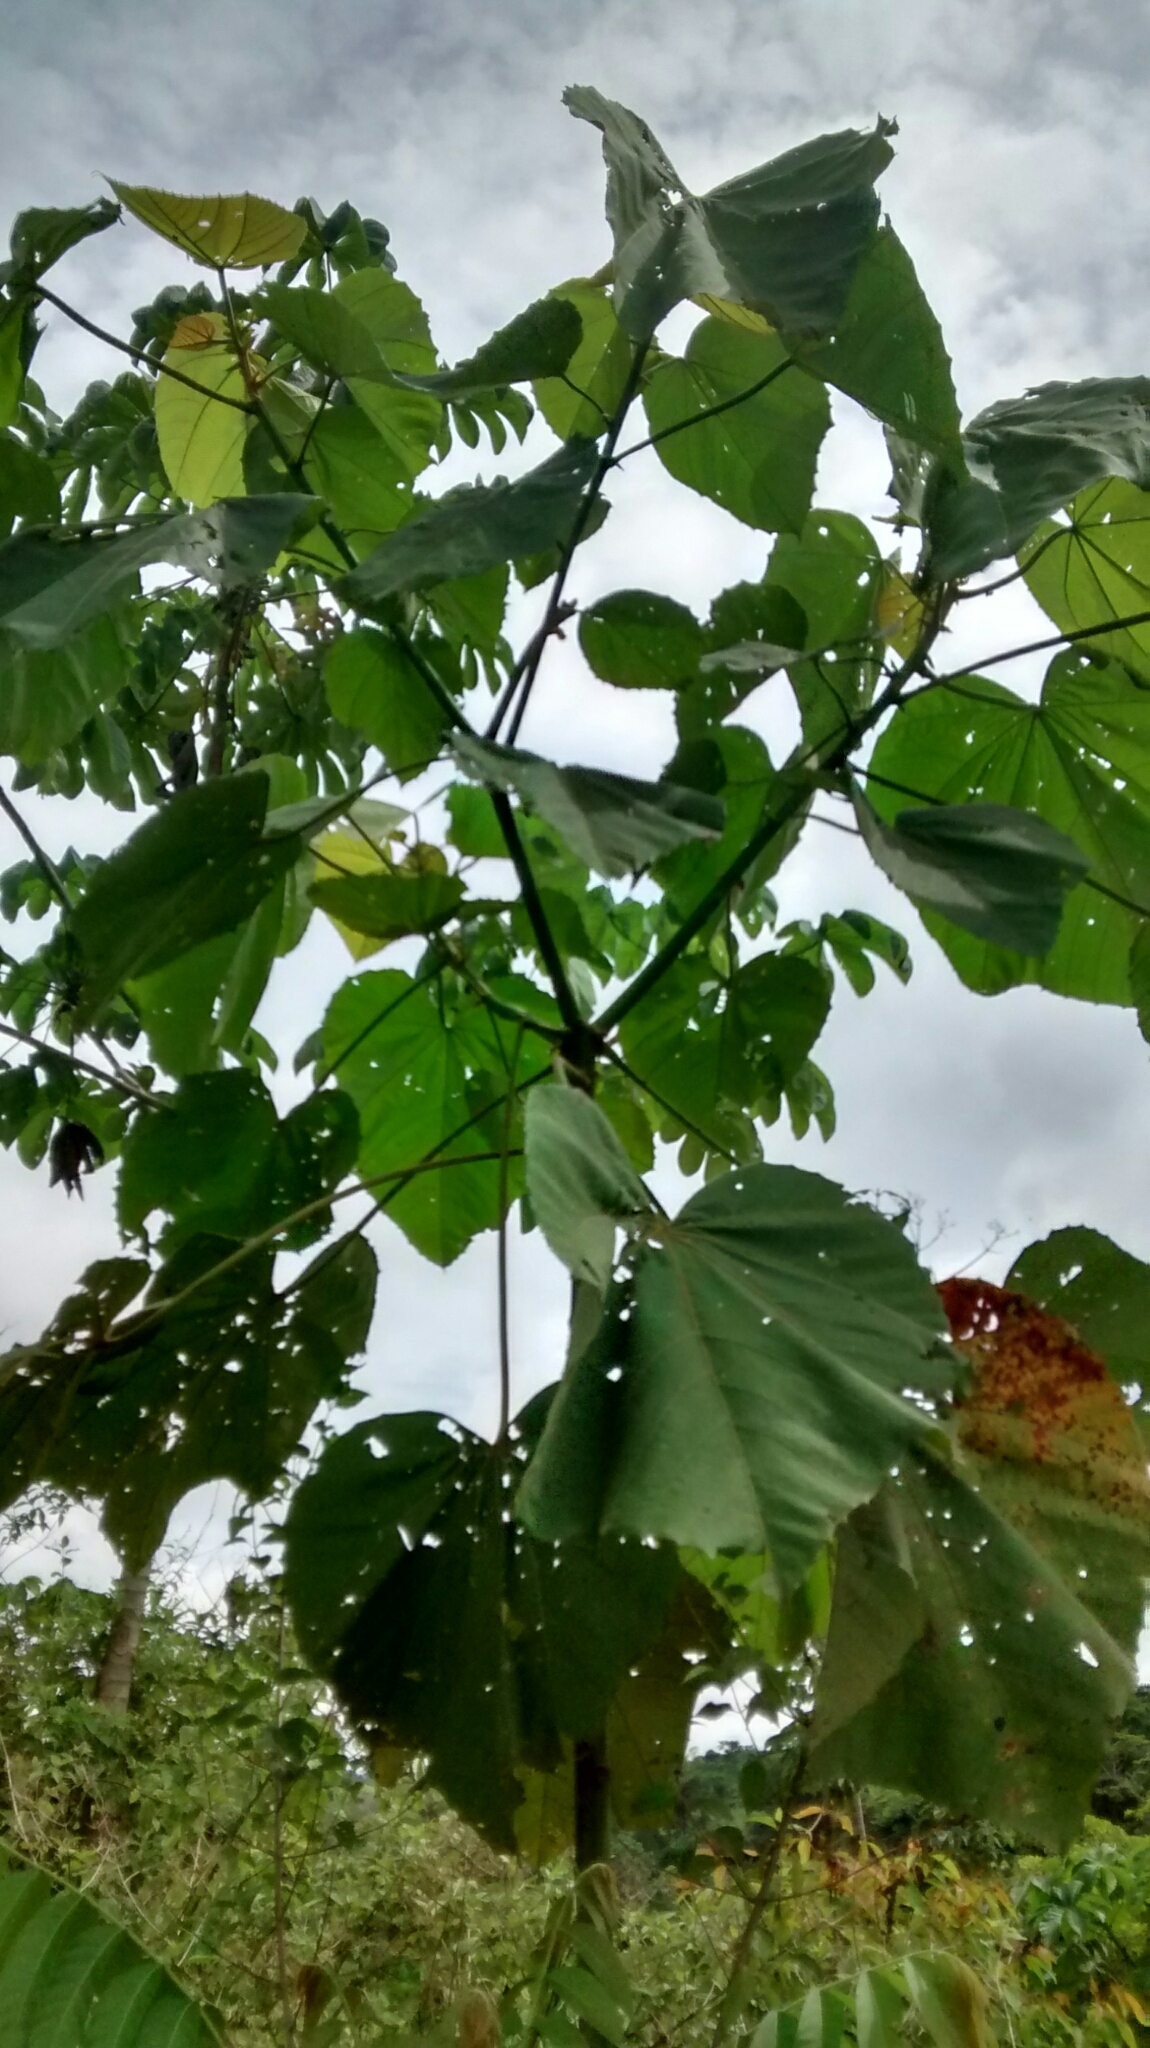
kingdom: Plantae
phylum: Tracheophyta
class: Magnoliopsida
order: Malvales
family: Malvaceae
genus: Ochroma
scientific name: Ochroma pyramidale
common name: Balsa
